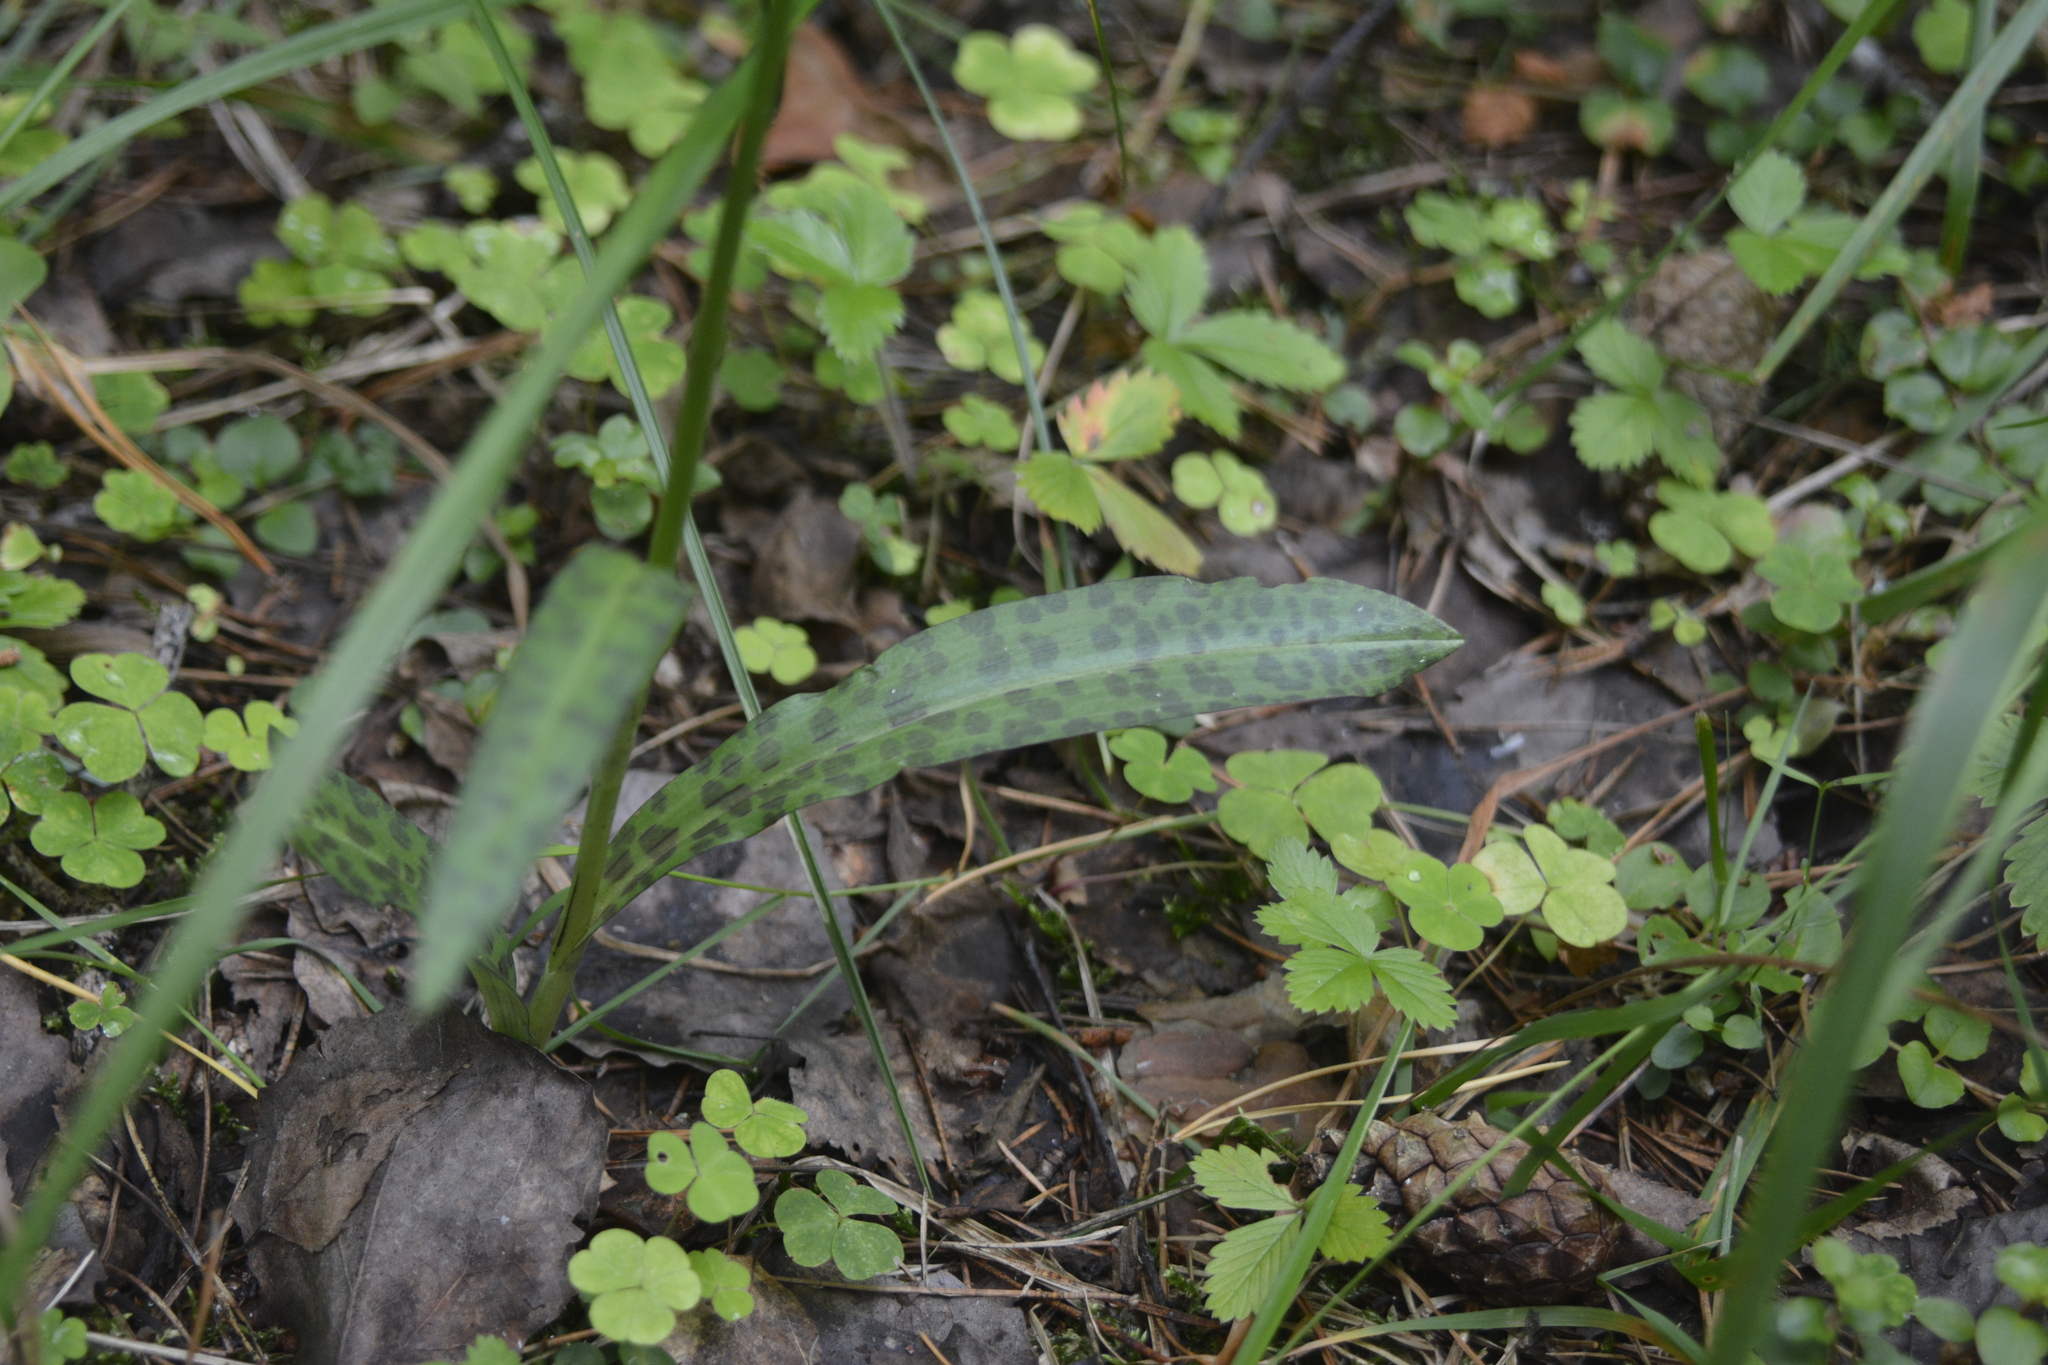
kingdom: Plantae
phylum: Tracheophyta
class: Liliopsida
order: Asparagales
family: Orchidaceae
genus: Dactylorhiza
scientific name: Dactylorhiza maculata
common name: Heath spotted-orchid
